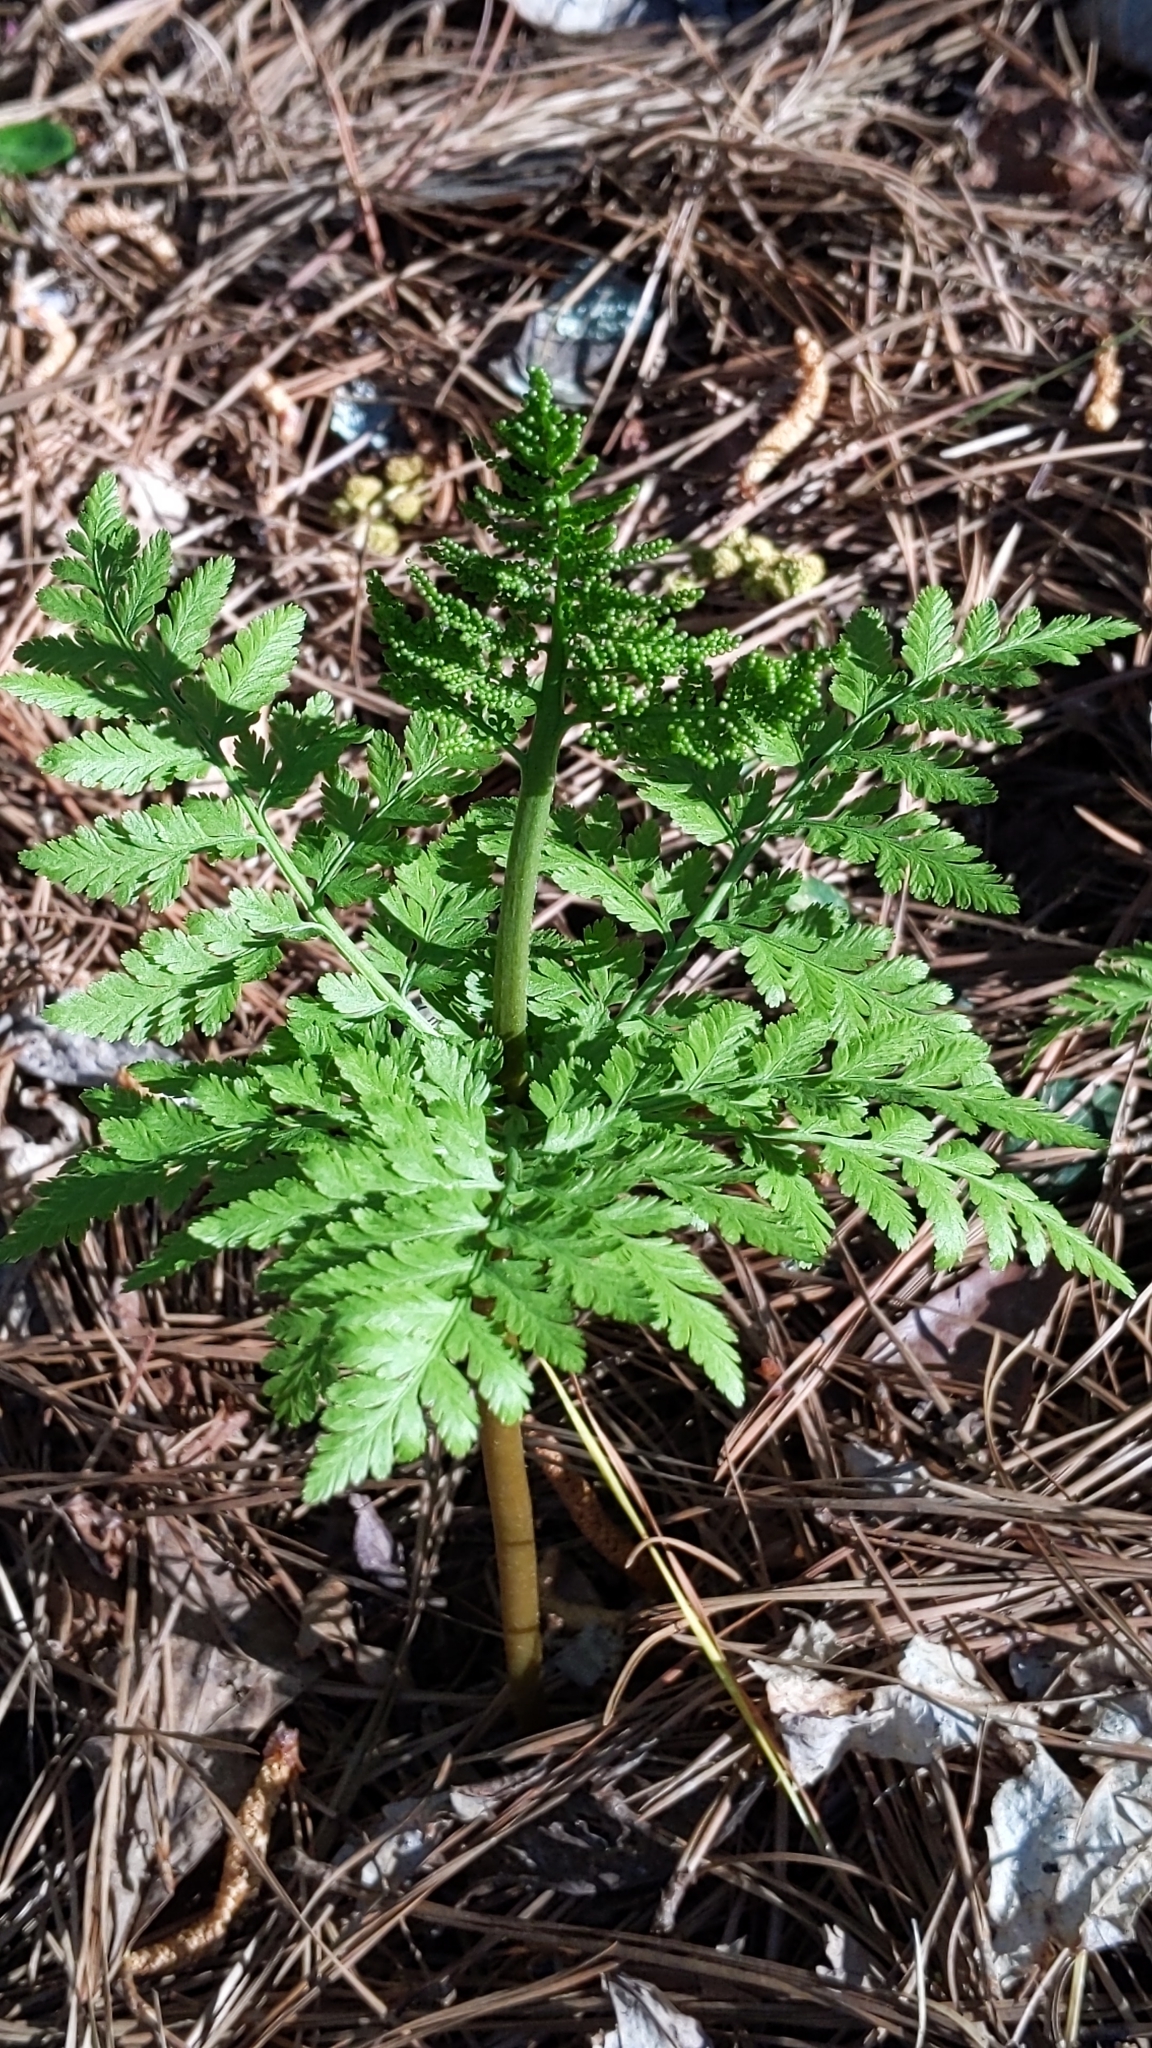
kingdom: Plantae
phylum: Tracheophyta
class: Polypodiopsida
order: Ophioglossales
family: Ophioglossaceae
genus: Botrypus
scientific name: Botrypus virginianus
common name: Common grapefern
